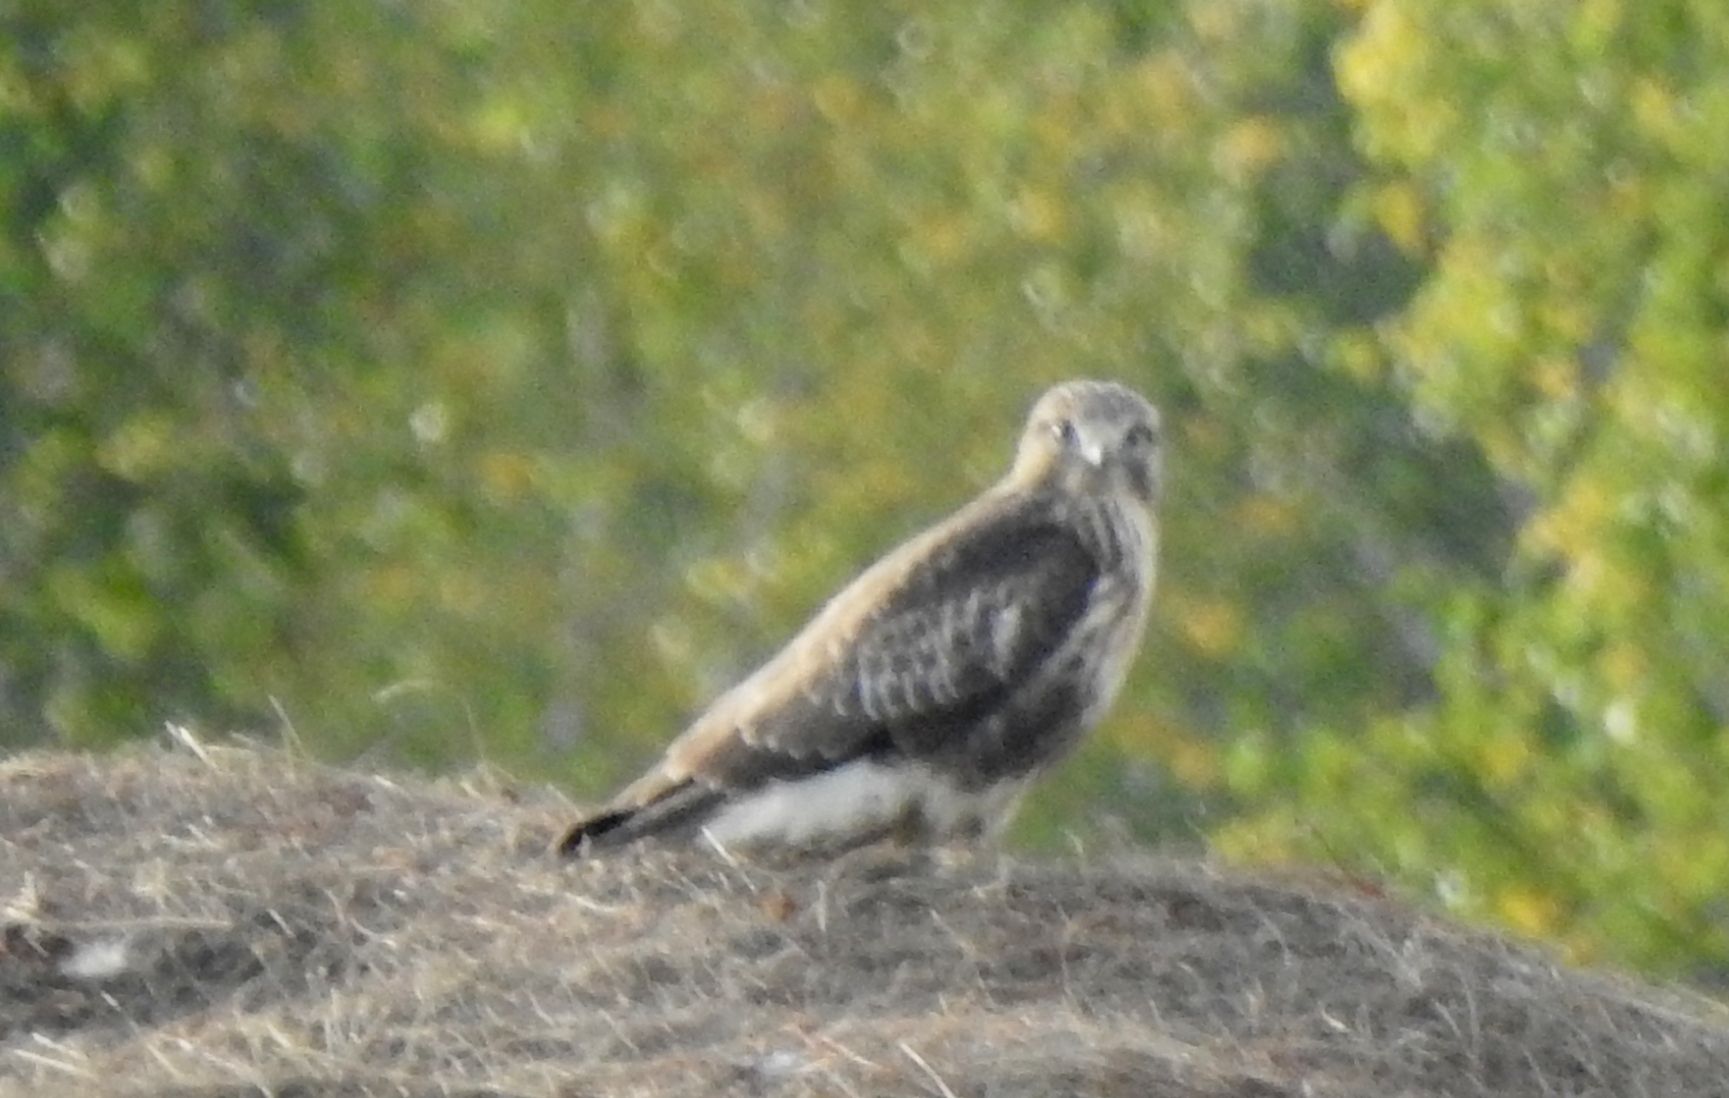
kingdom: Animalia
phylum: Chordata
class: Aves
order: Accipitriformes
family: Accipitridae
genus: Buteo
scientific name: Buteo japonicus
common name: Eastern buzzard
